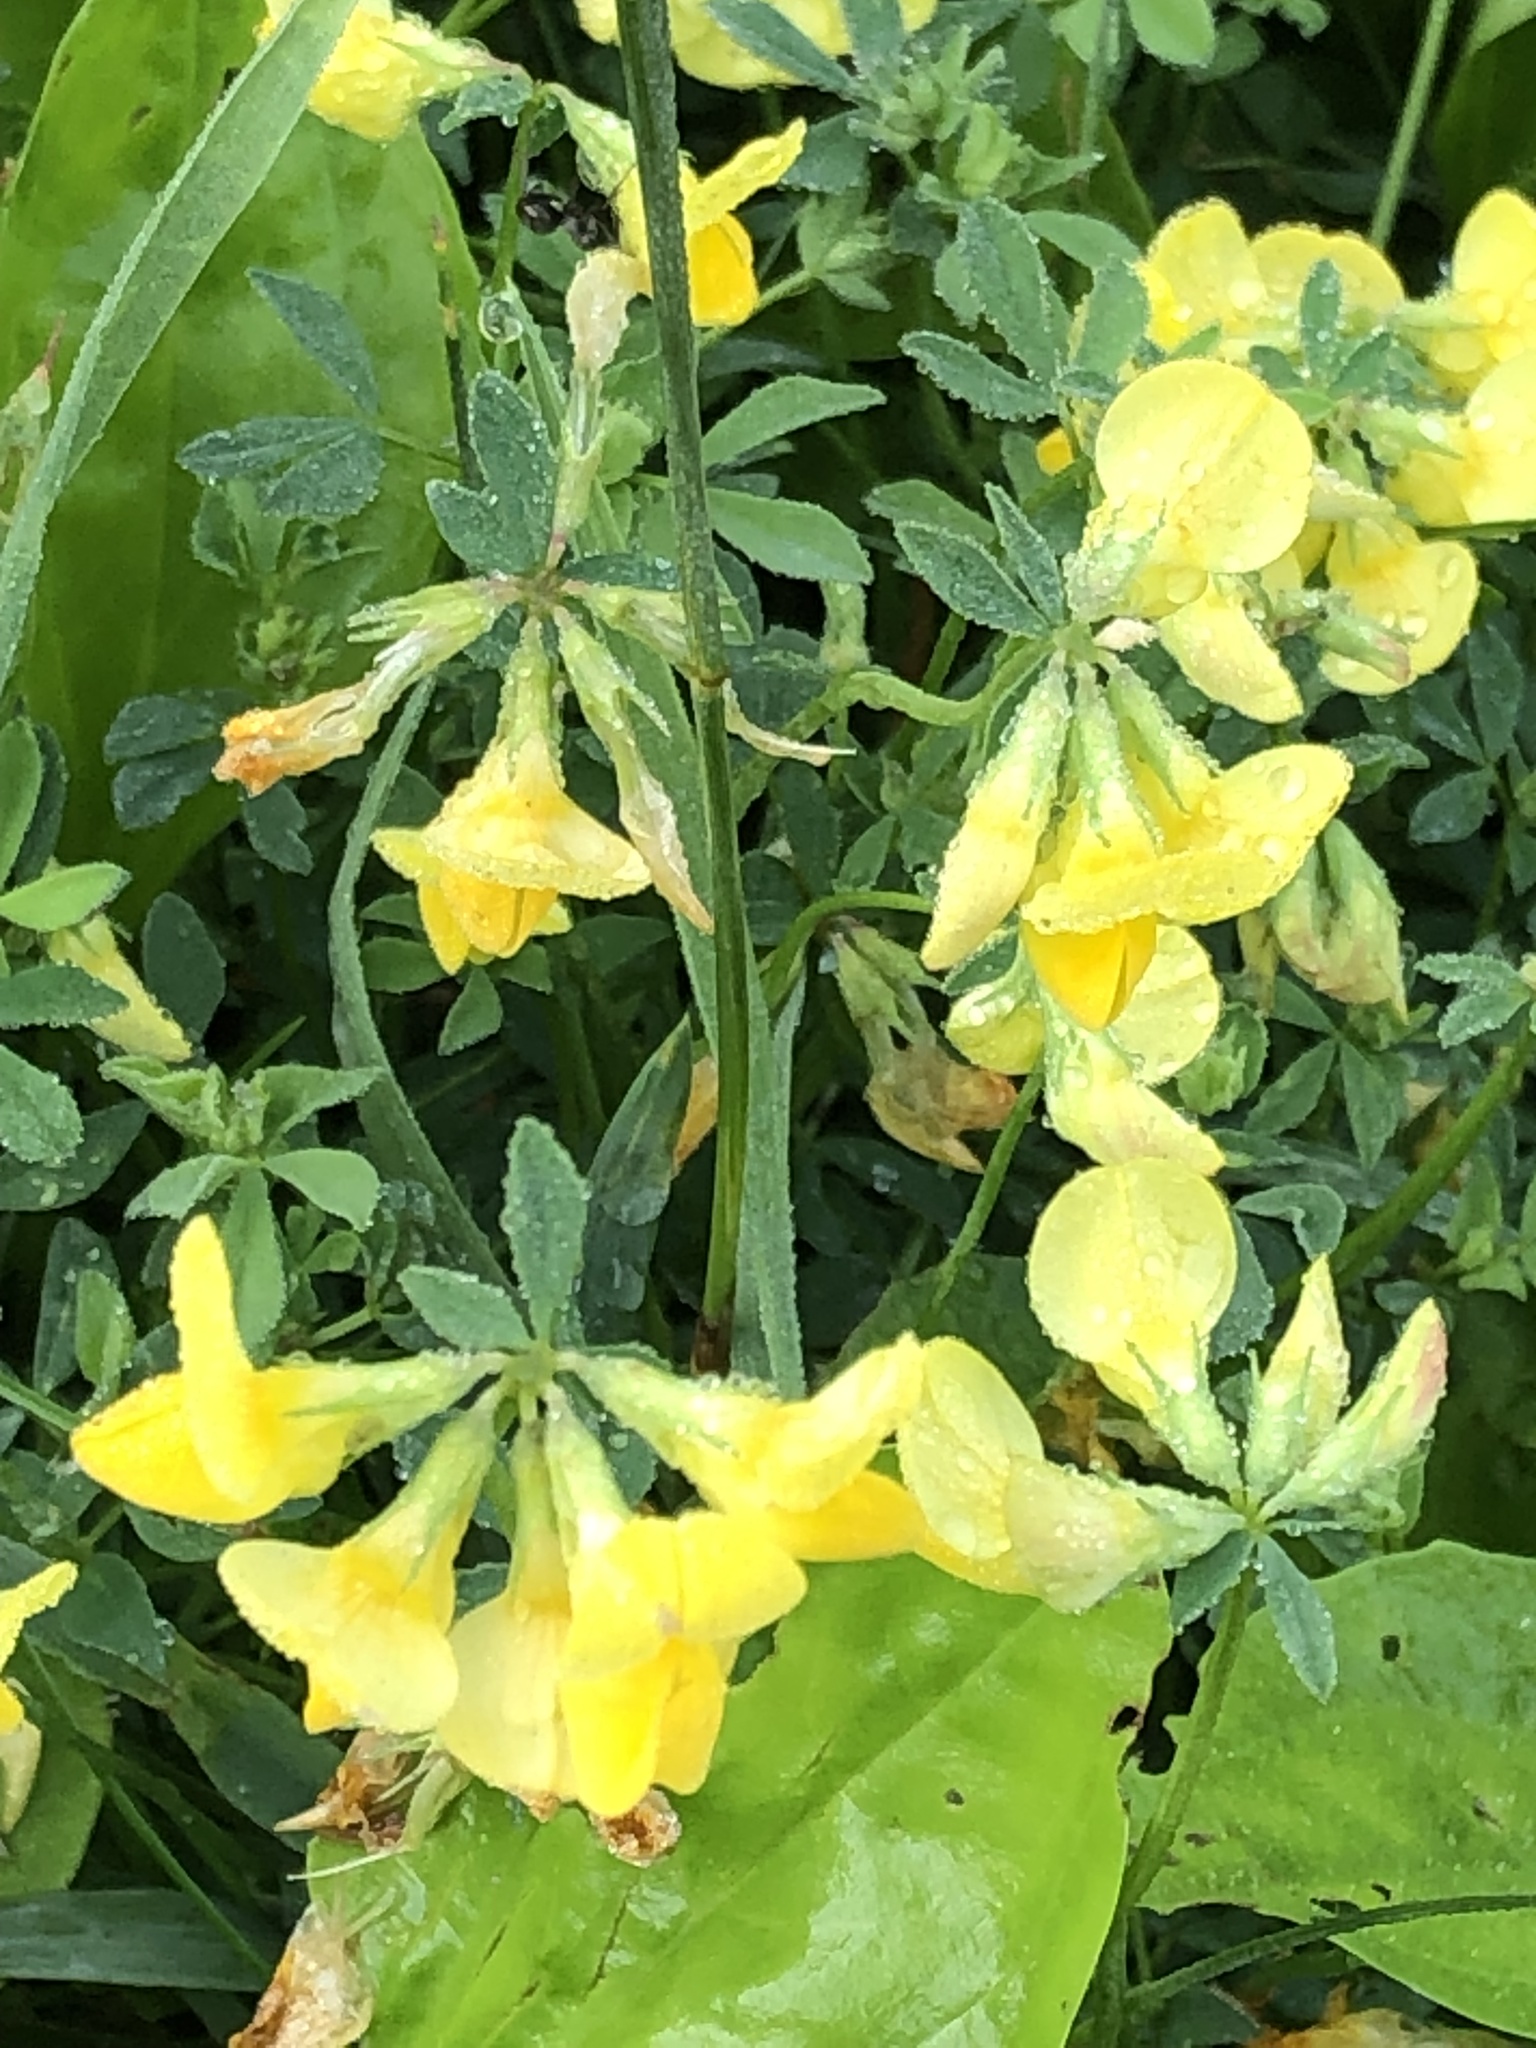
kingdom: Plantae
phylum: Tracheophyta
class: Magnoliopsida
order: Fabales
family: Fabaceae
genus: Lotus
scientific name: Lotus corniculatus
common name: Common bird's-foot-trefoil
